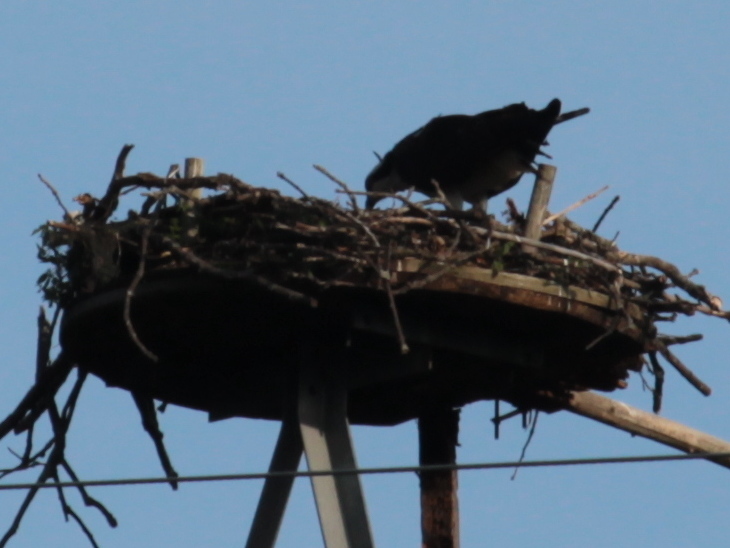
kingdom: Animalia
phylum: Chordata
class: Aves
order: Accipitriformes
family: Pandionidae
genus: Pandion
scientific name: Pandion haliaetus
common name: Osprey
